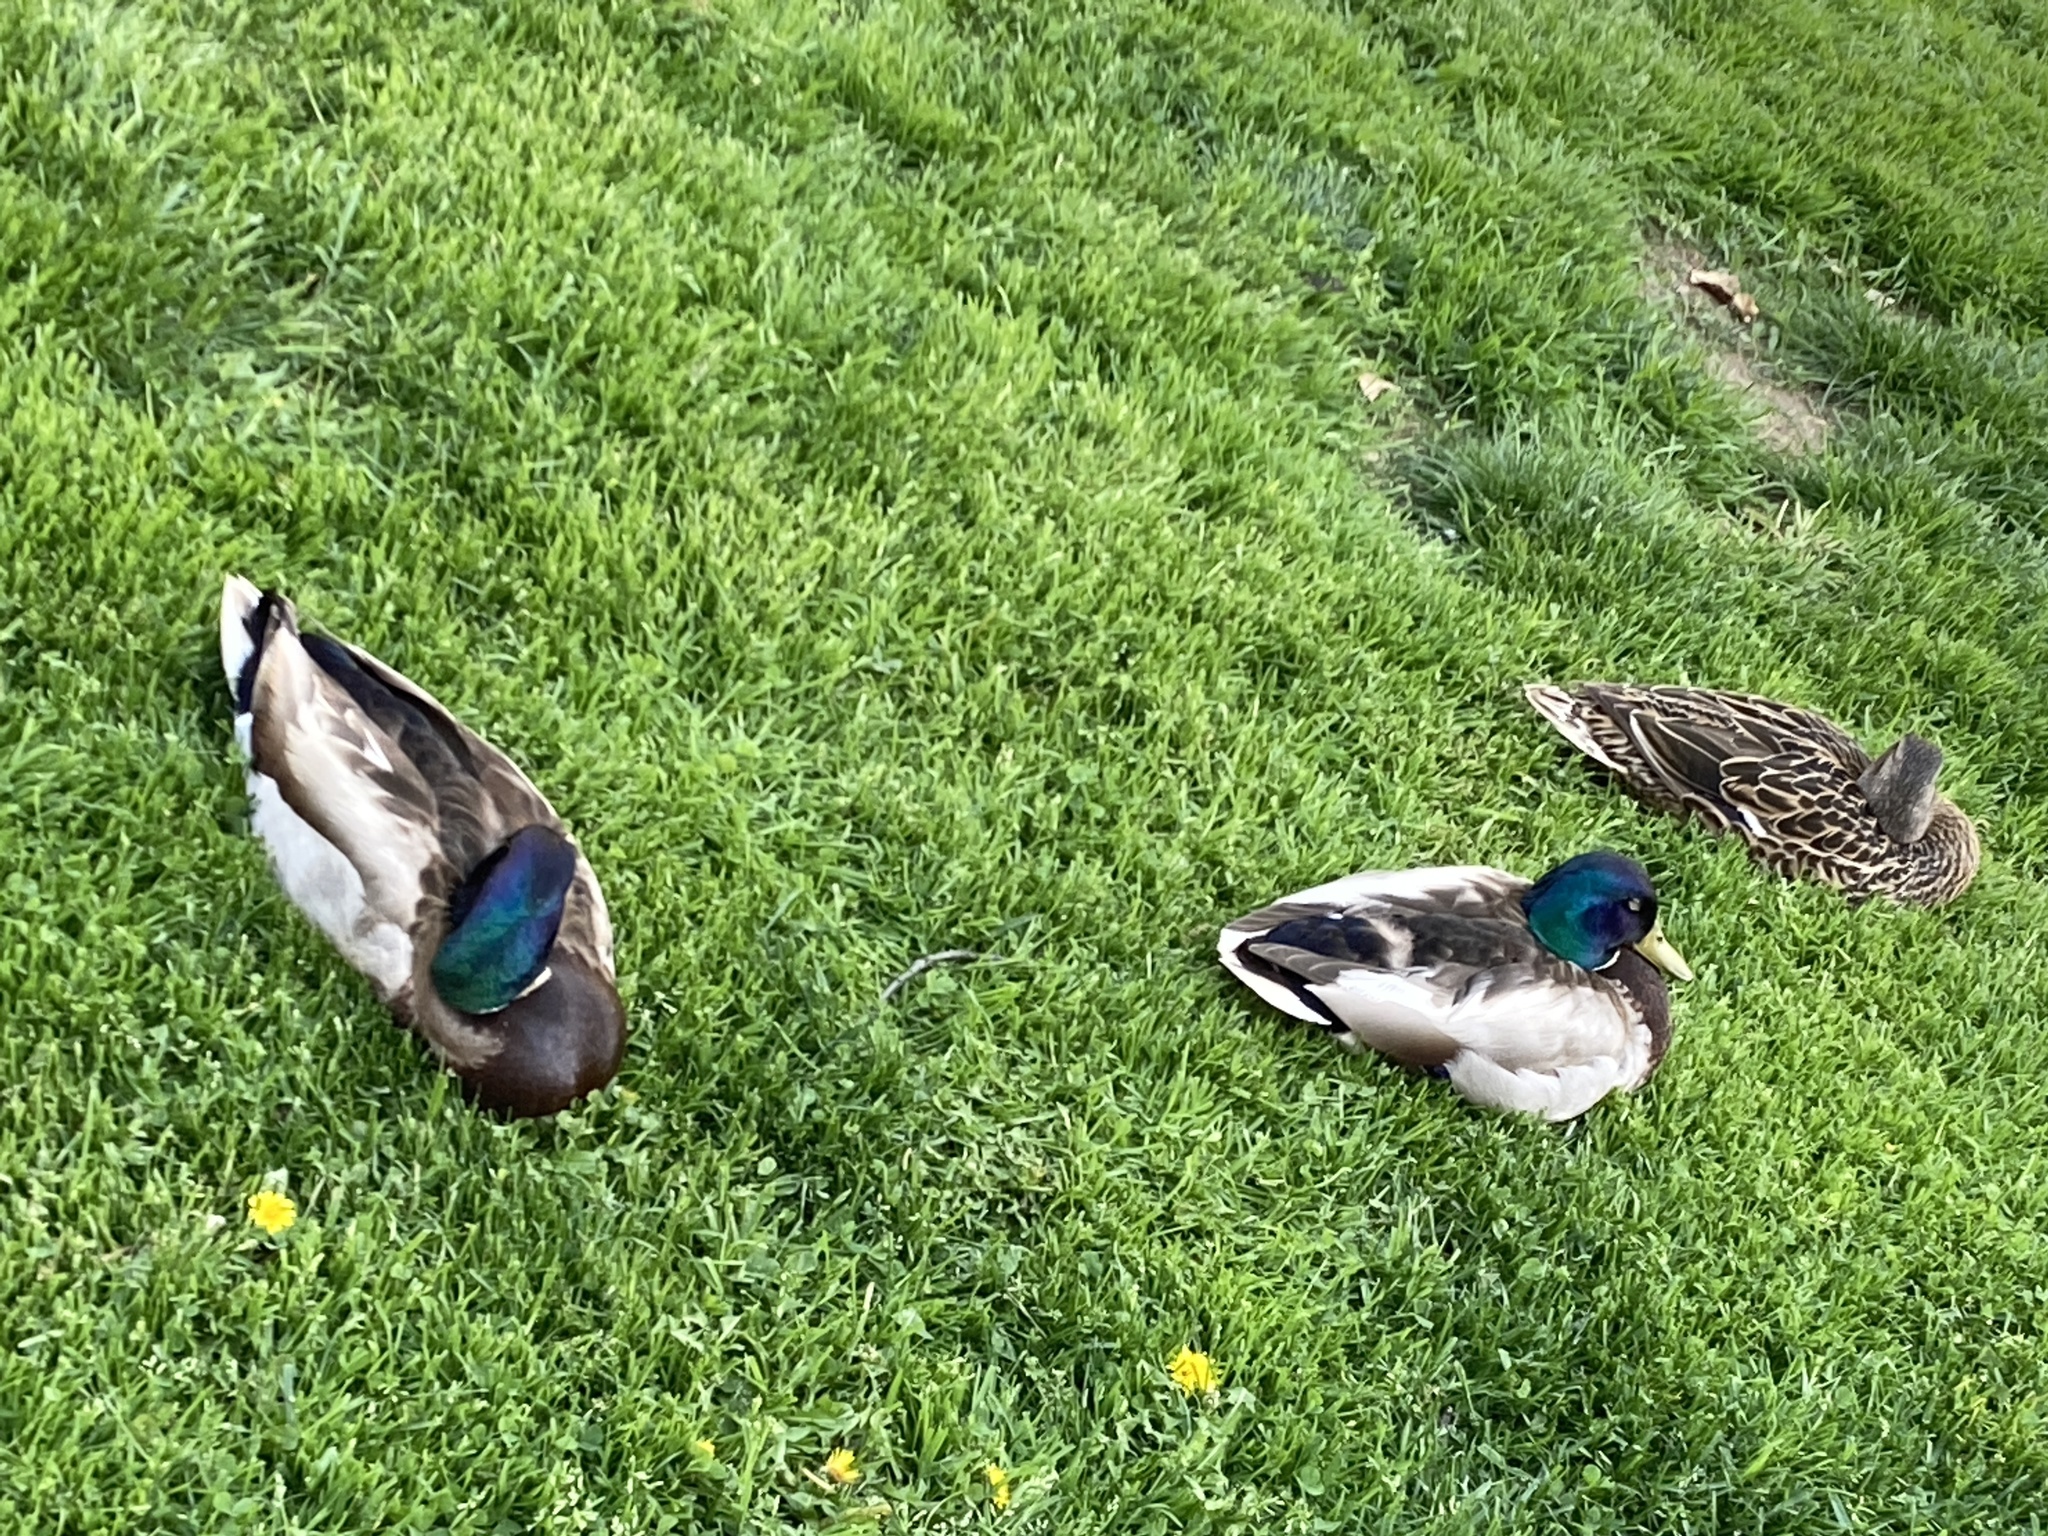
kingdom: Animalia
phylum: Chordata
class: Aves
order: Anseriformes
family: Anatidae
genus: Anas
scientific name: Anas platyrhynchos
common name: Mallard
